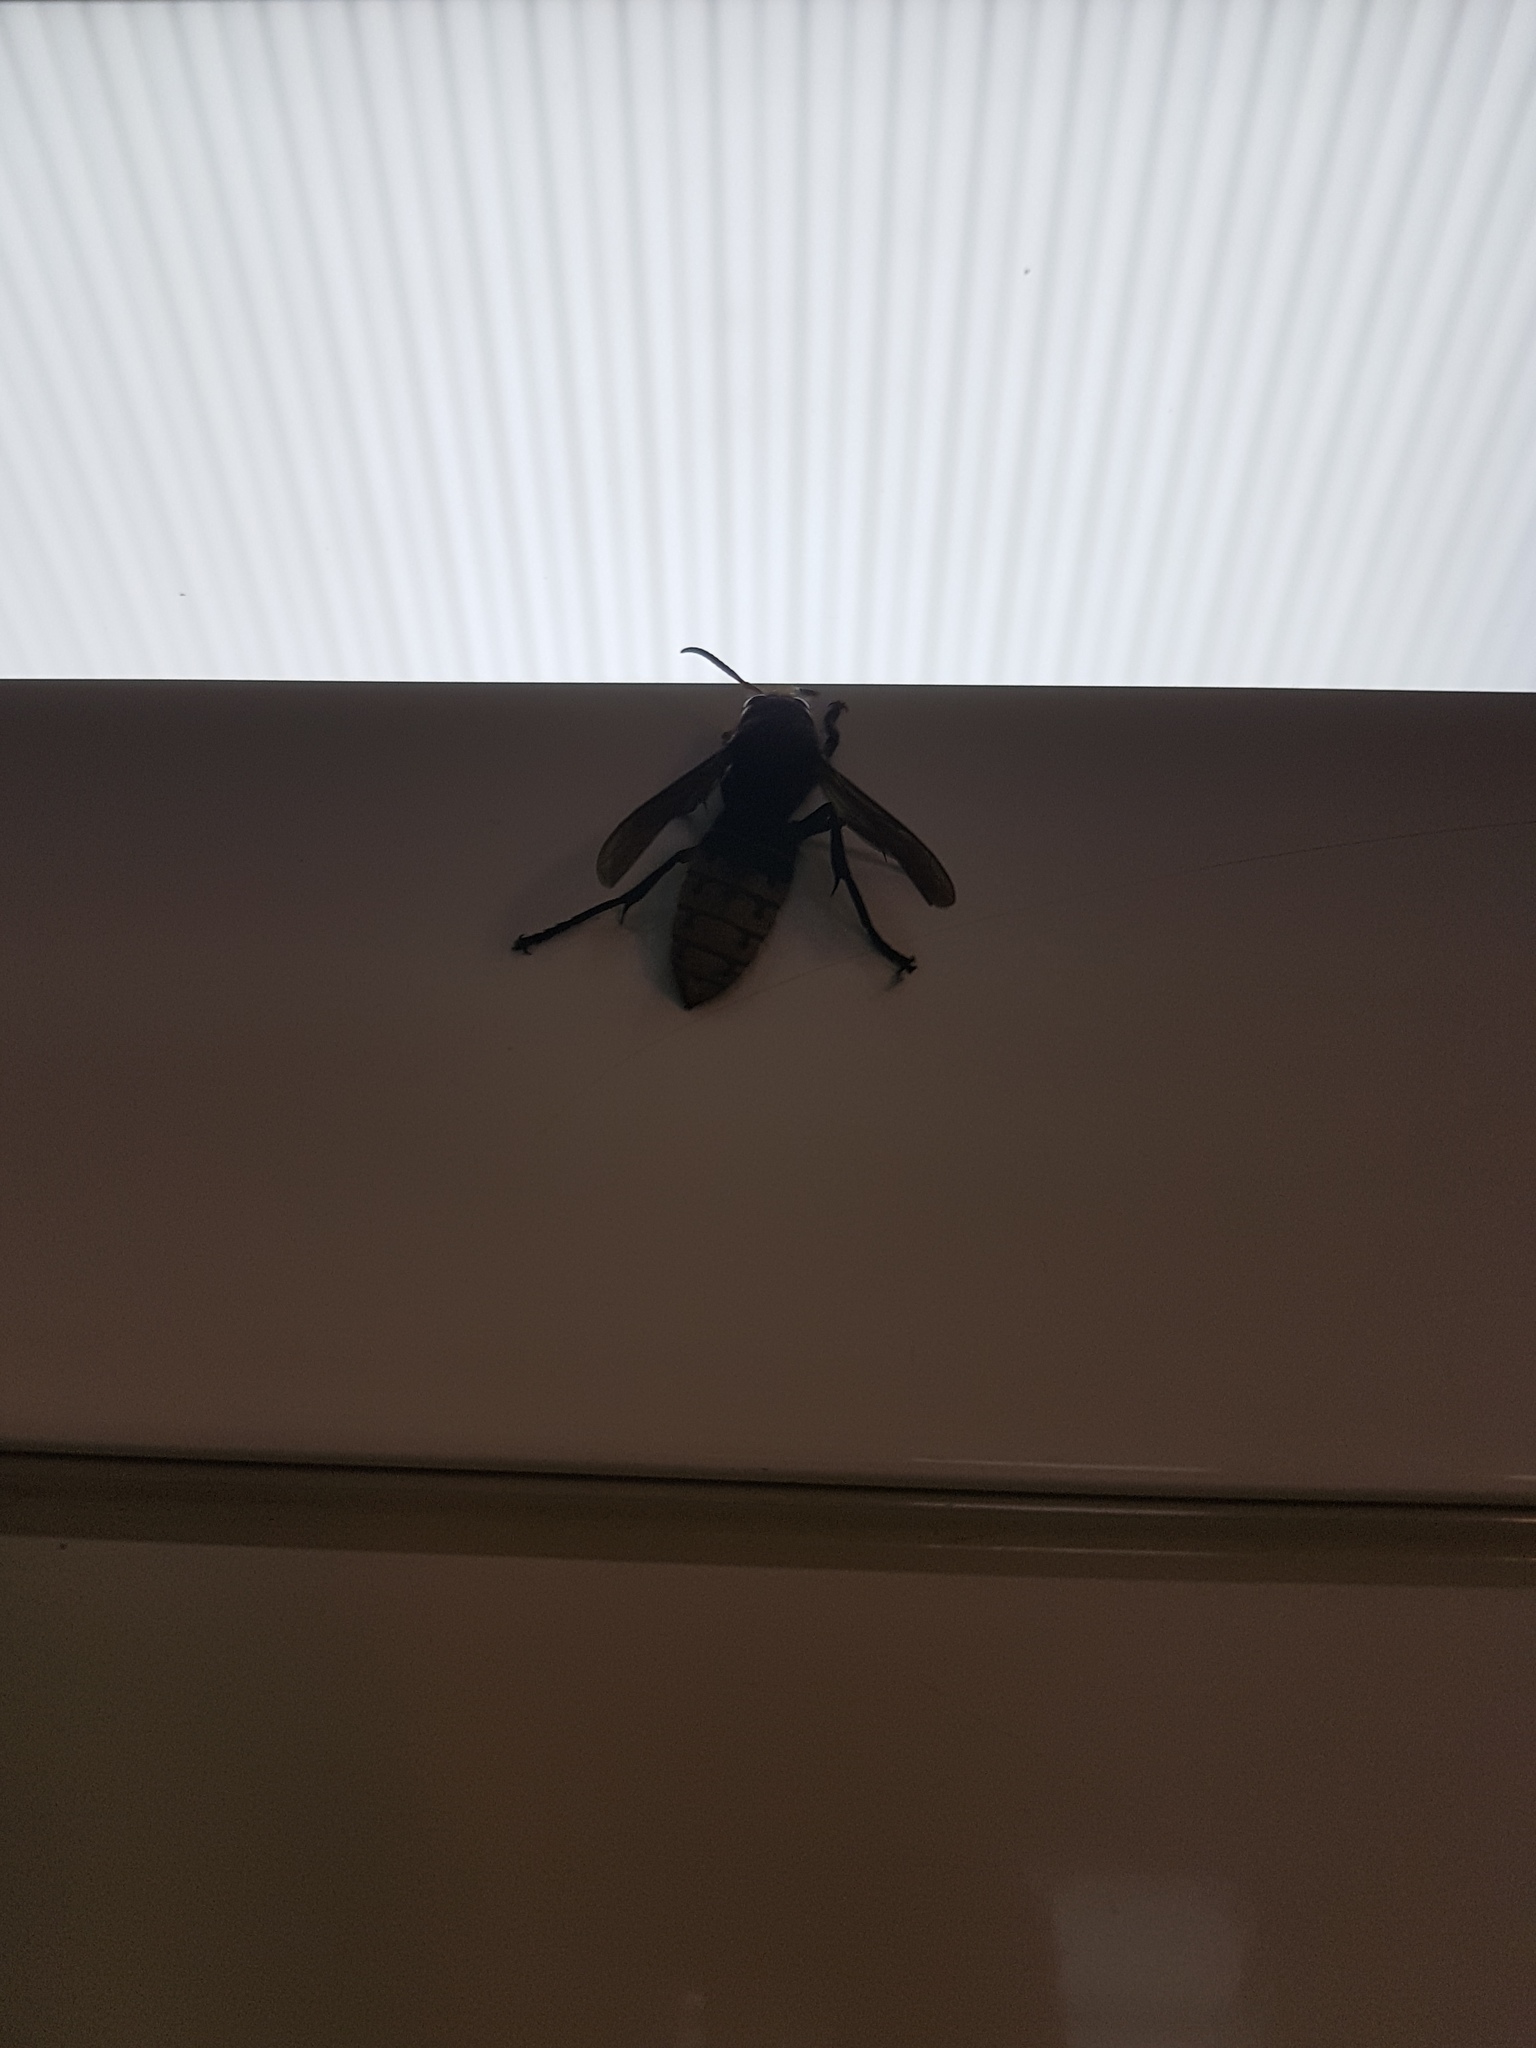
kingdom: Animalia
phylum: Arthropoda
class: Insecta
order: Hymenoptera
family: Vespidae
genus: Vespa
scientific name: Vespa crabro
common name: Hornet
